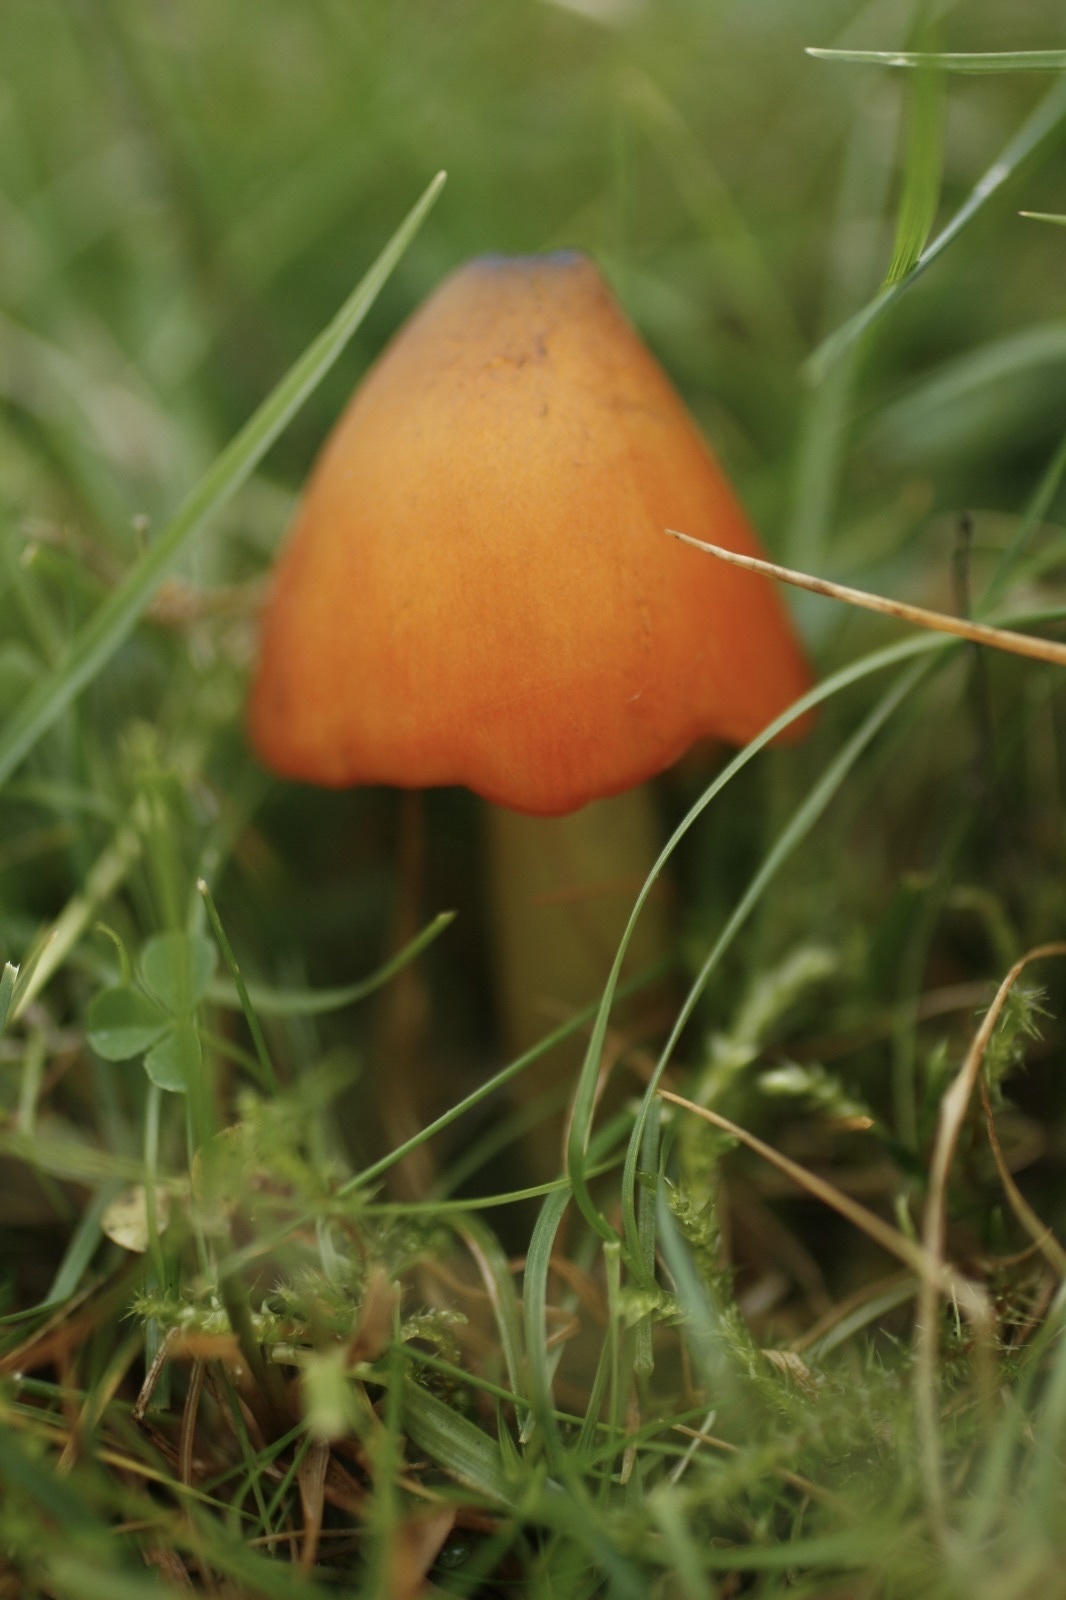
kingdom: Fungi
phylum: Basidiomycota
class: Agaricomycetes
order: Agaricales
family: Hygrophoraceae
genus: Hygrocybe
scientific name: Hygrocybe conica
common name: Blackening wax-cap
